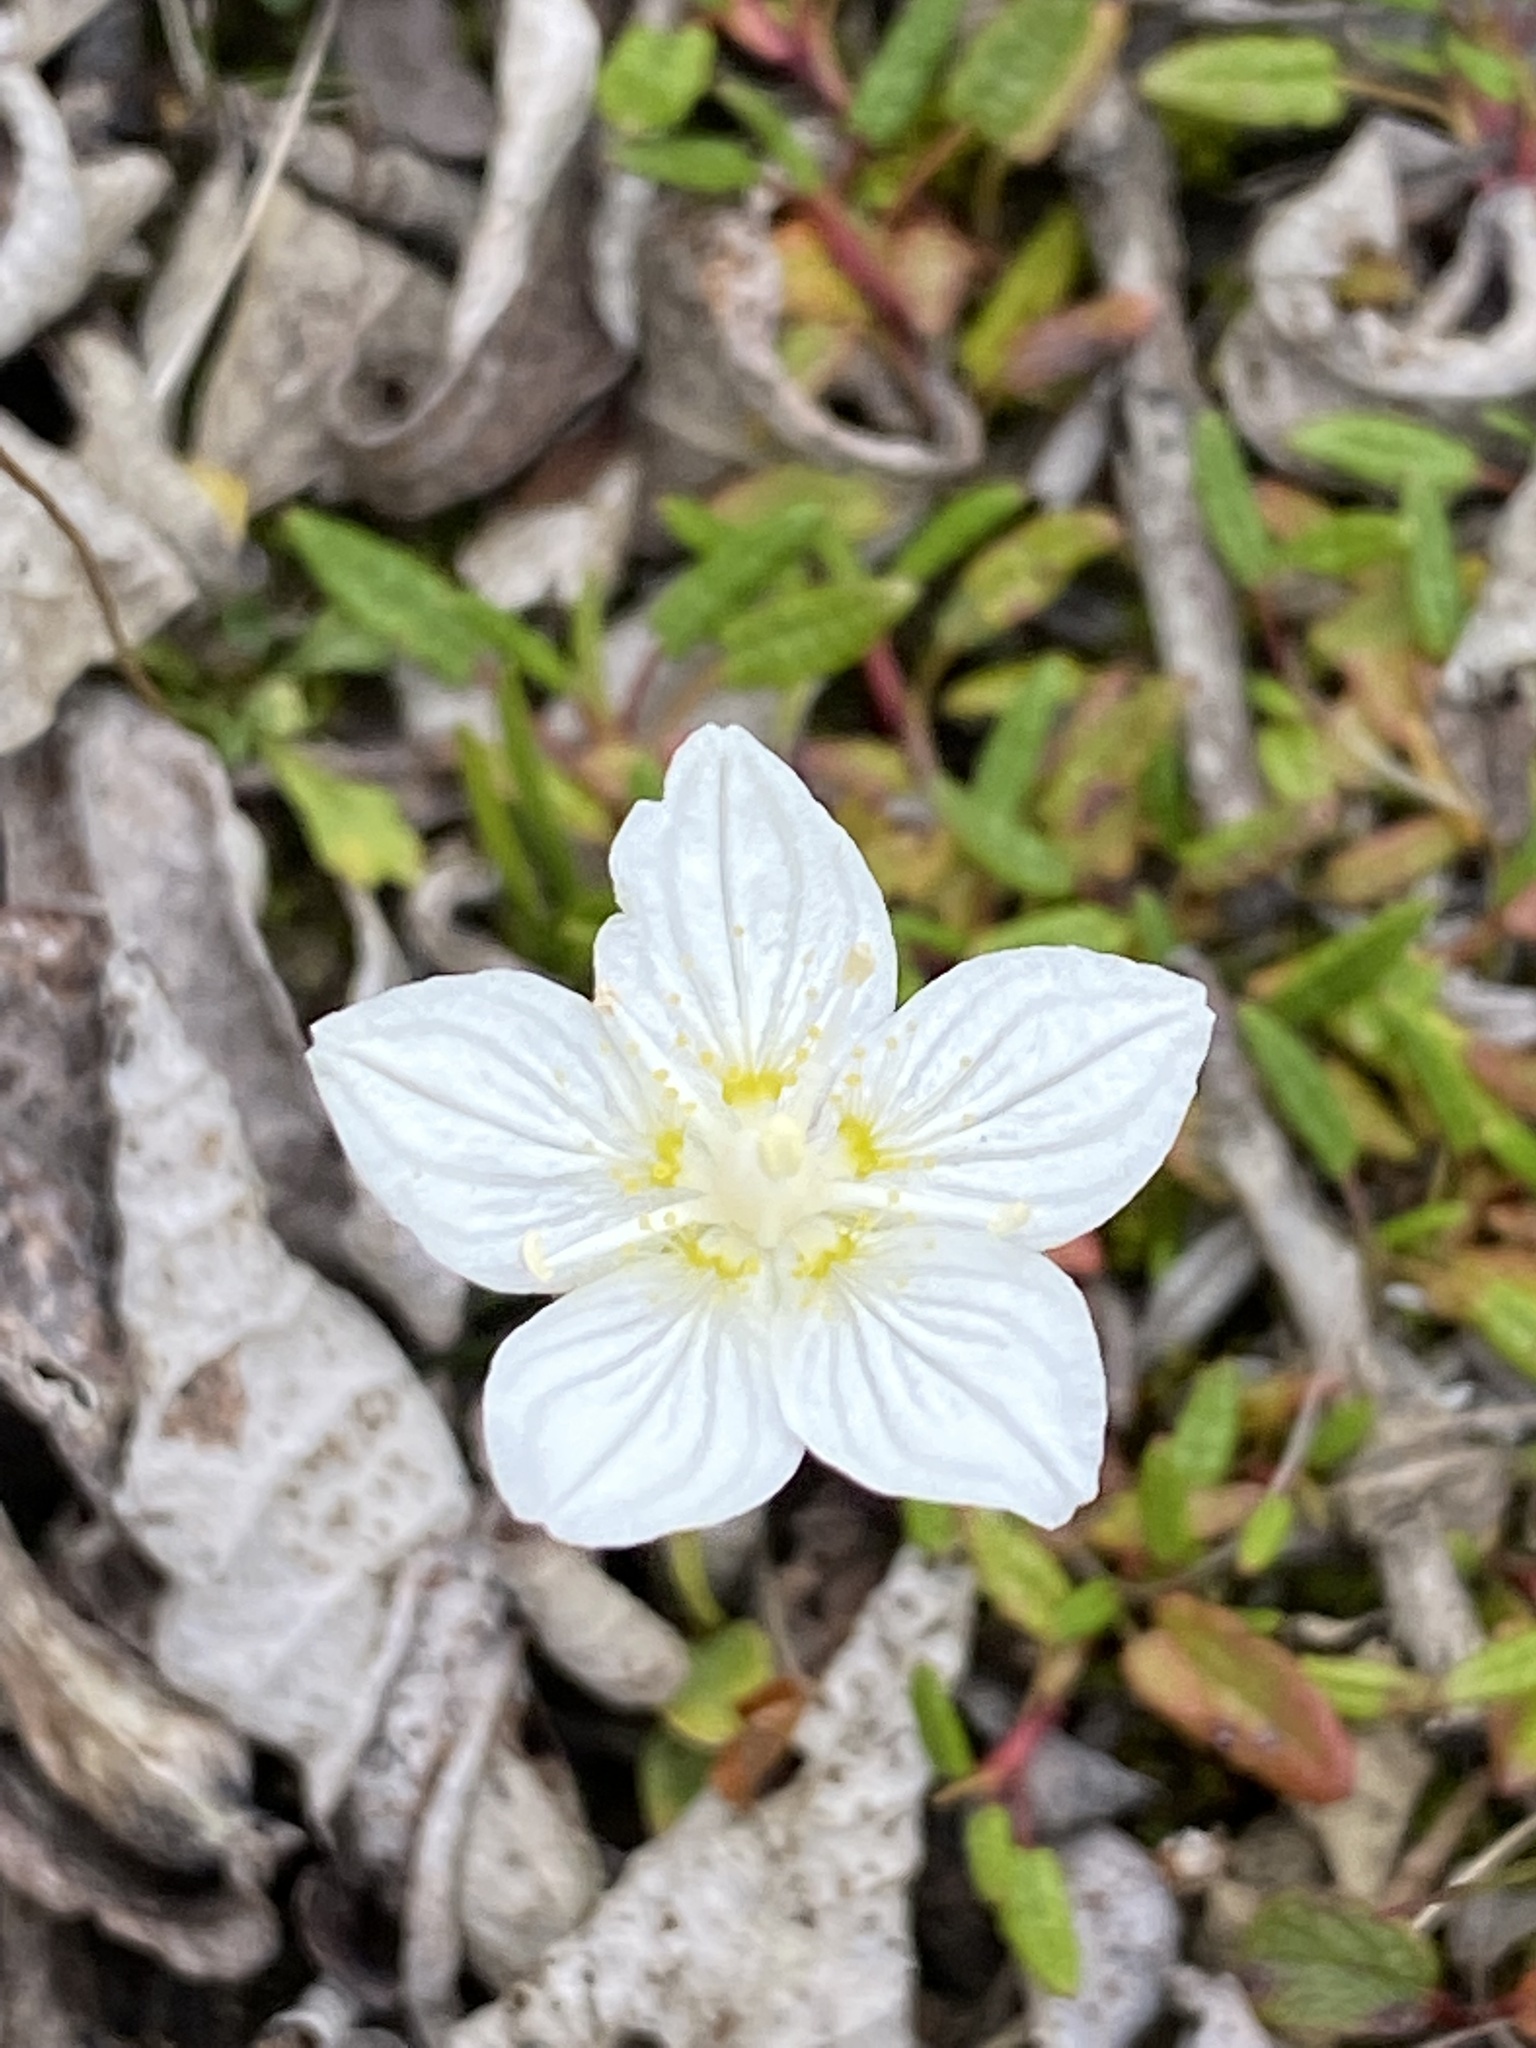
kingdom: Plantae
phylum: Tracheophyta
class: Magnoliopsida
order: Celastrales
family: Parnassiaceae
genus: Parnassia
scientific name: Parnassia palustris
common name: Grass-of-parnassus
